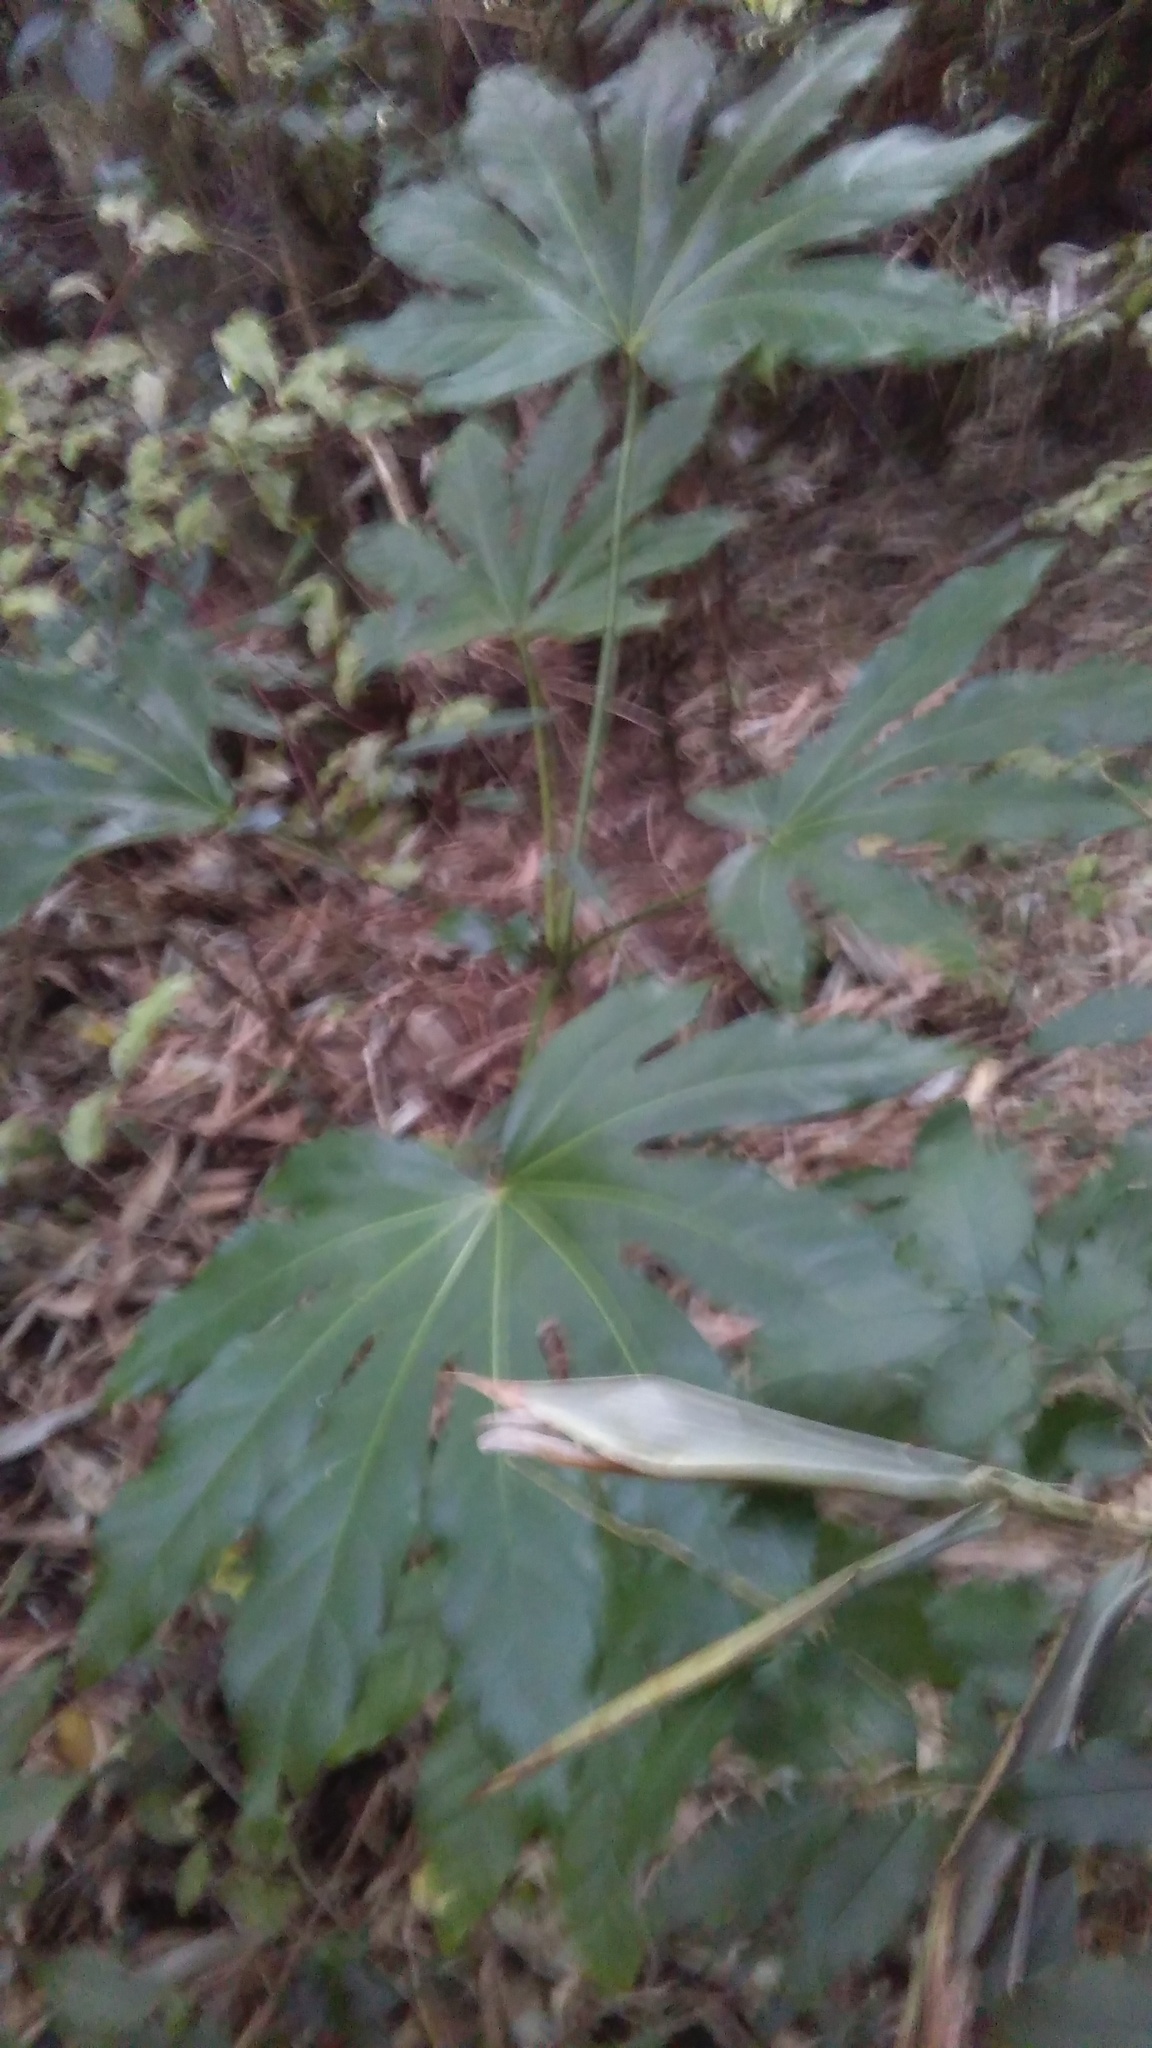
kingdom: Plantae
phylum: Tracheophyta
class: Magnoliopsida
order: Apiales
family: Araliaceae
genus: Fatsia
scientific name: Fatsia japonica
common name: Fatsia
